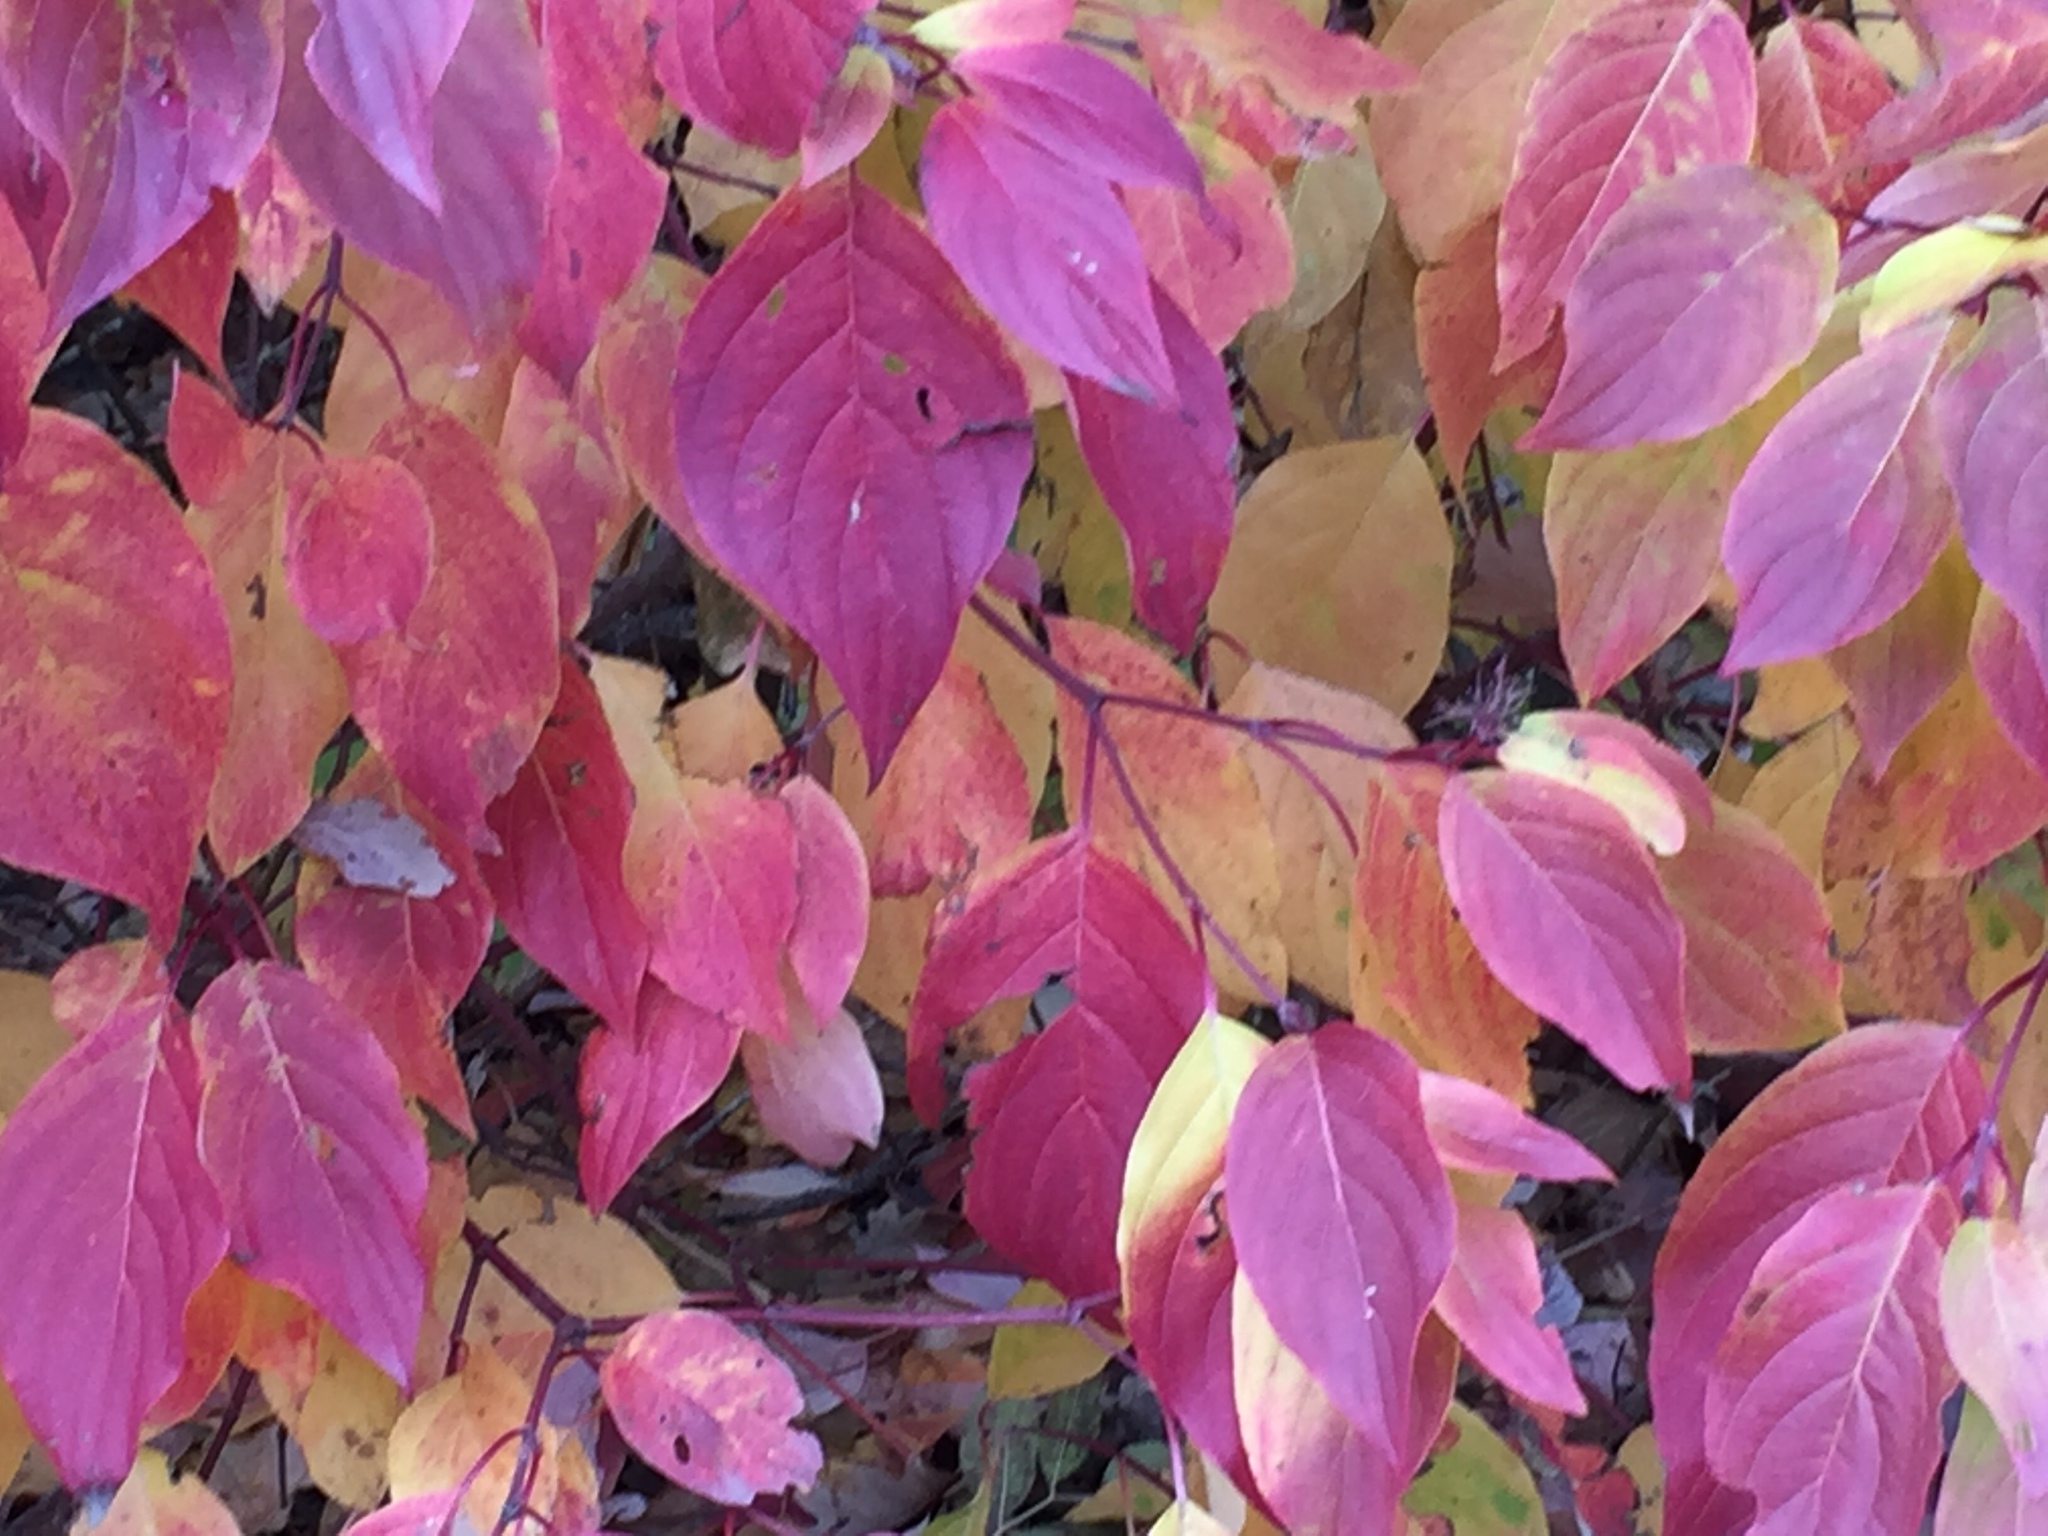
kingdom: Plantae
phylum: Tracheophyta
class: Magnoliopsida
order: Cornales
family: Cornaceae
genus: Cornus
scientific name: Cornus sericea
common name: Red-osier dogwood
